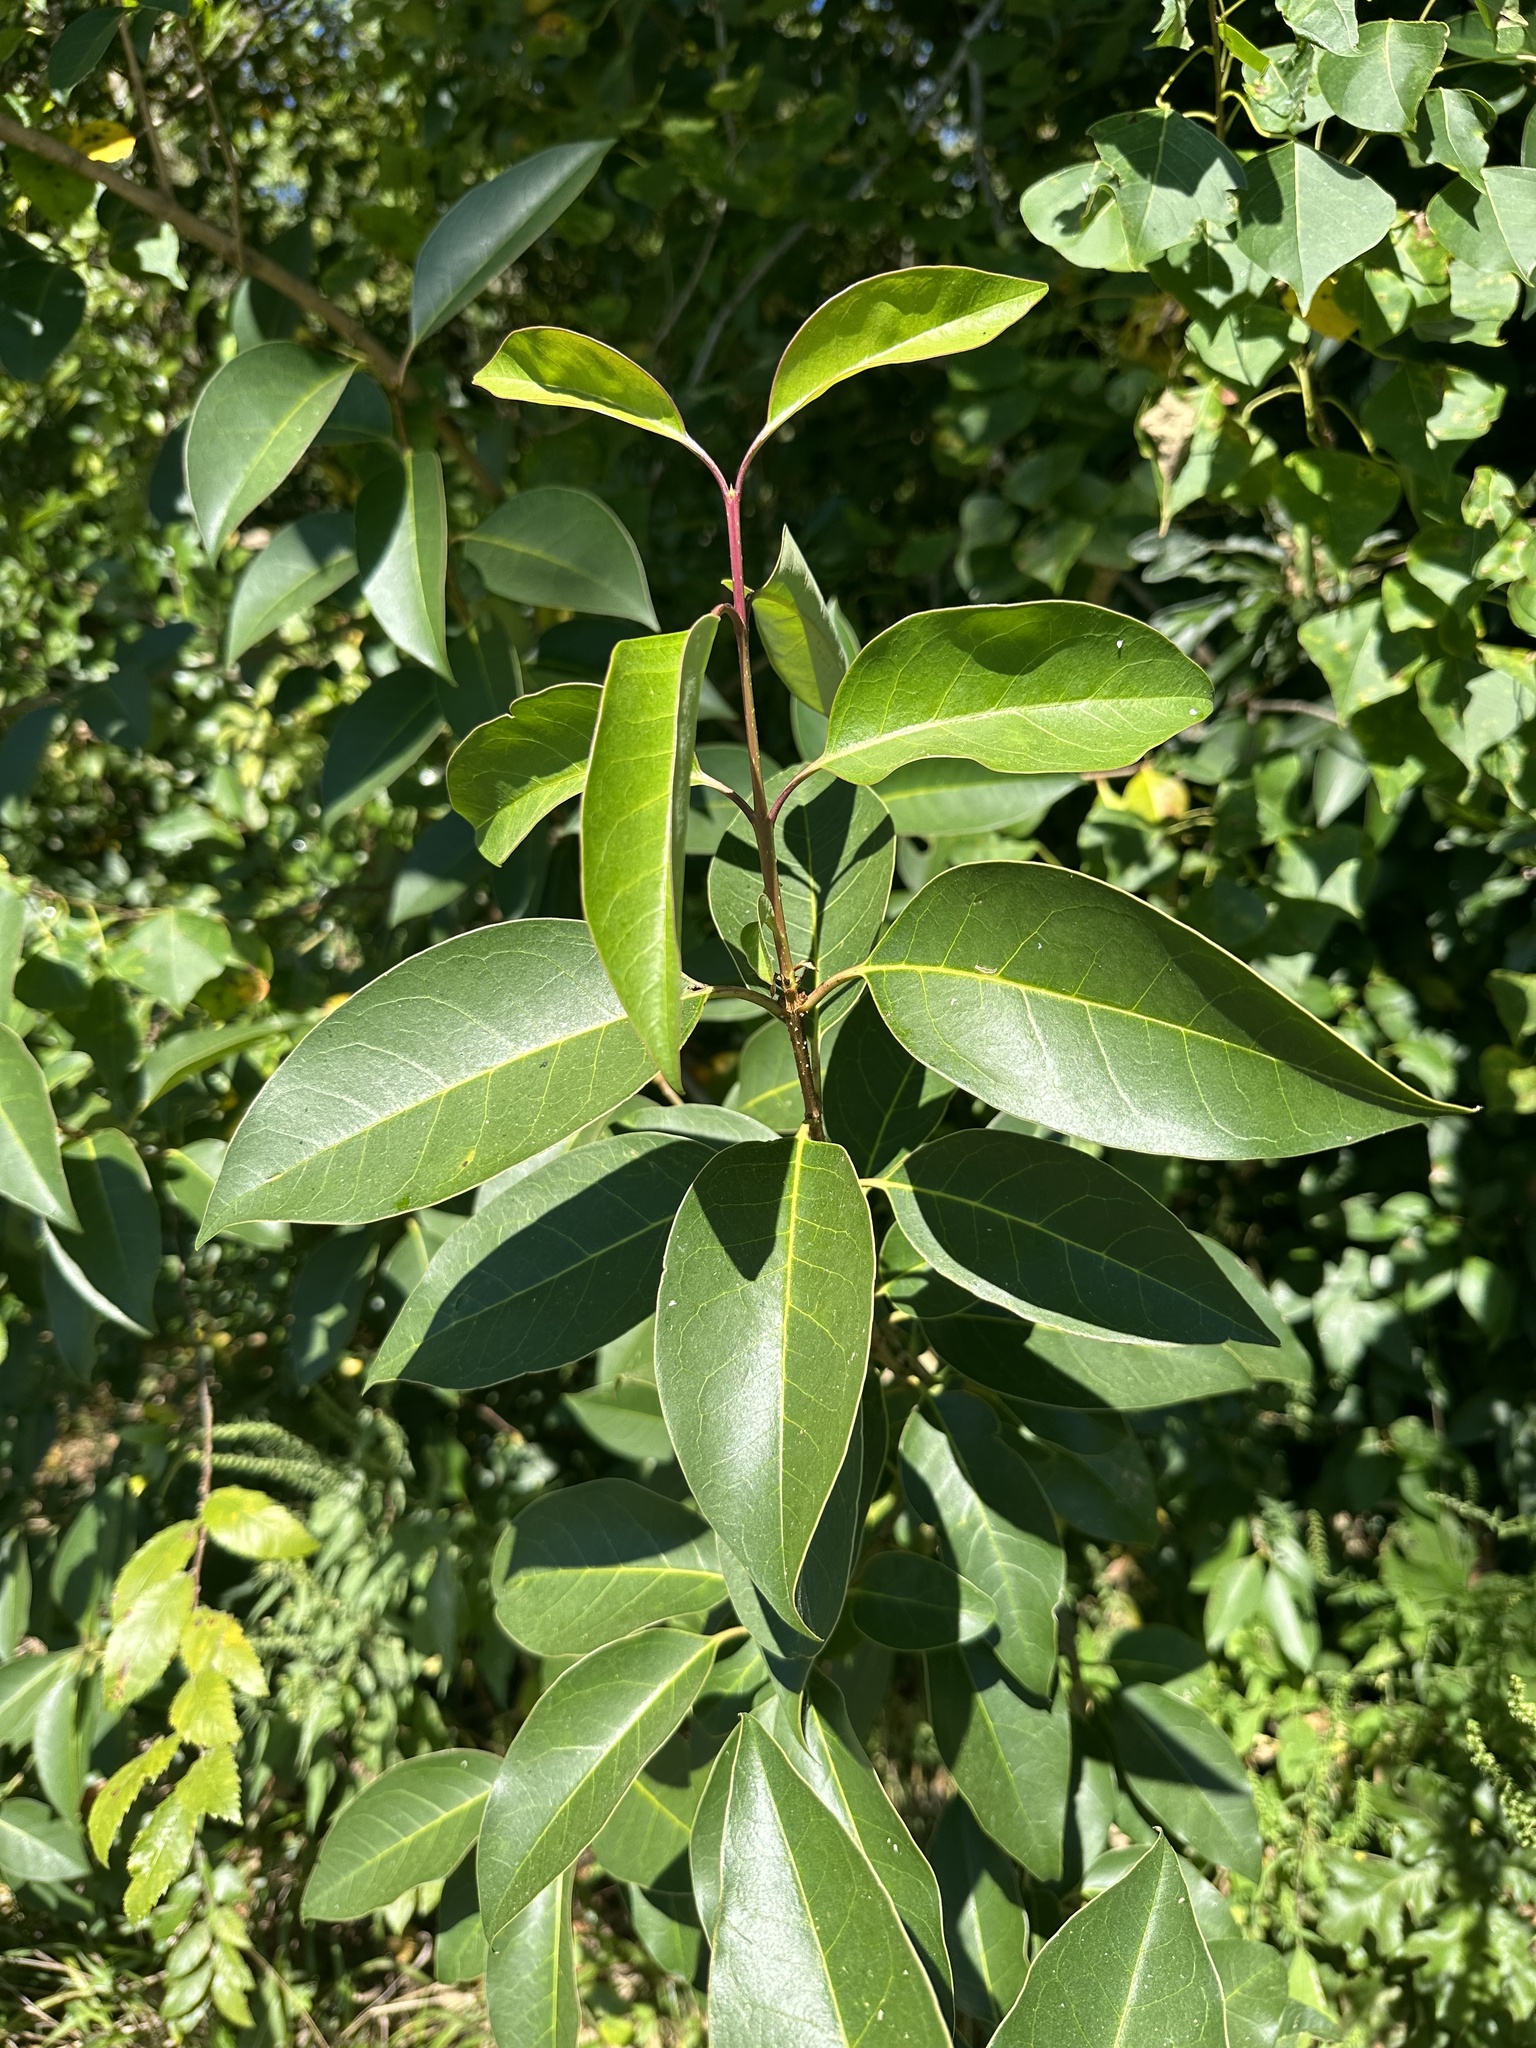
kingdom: Plantae
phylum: Tracheophyta
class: Magnoliopsida
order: Lamiales
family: Oleaceae
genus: Ligustrum
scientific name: Ligustrum lucidum
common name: Glossy privet
